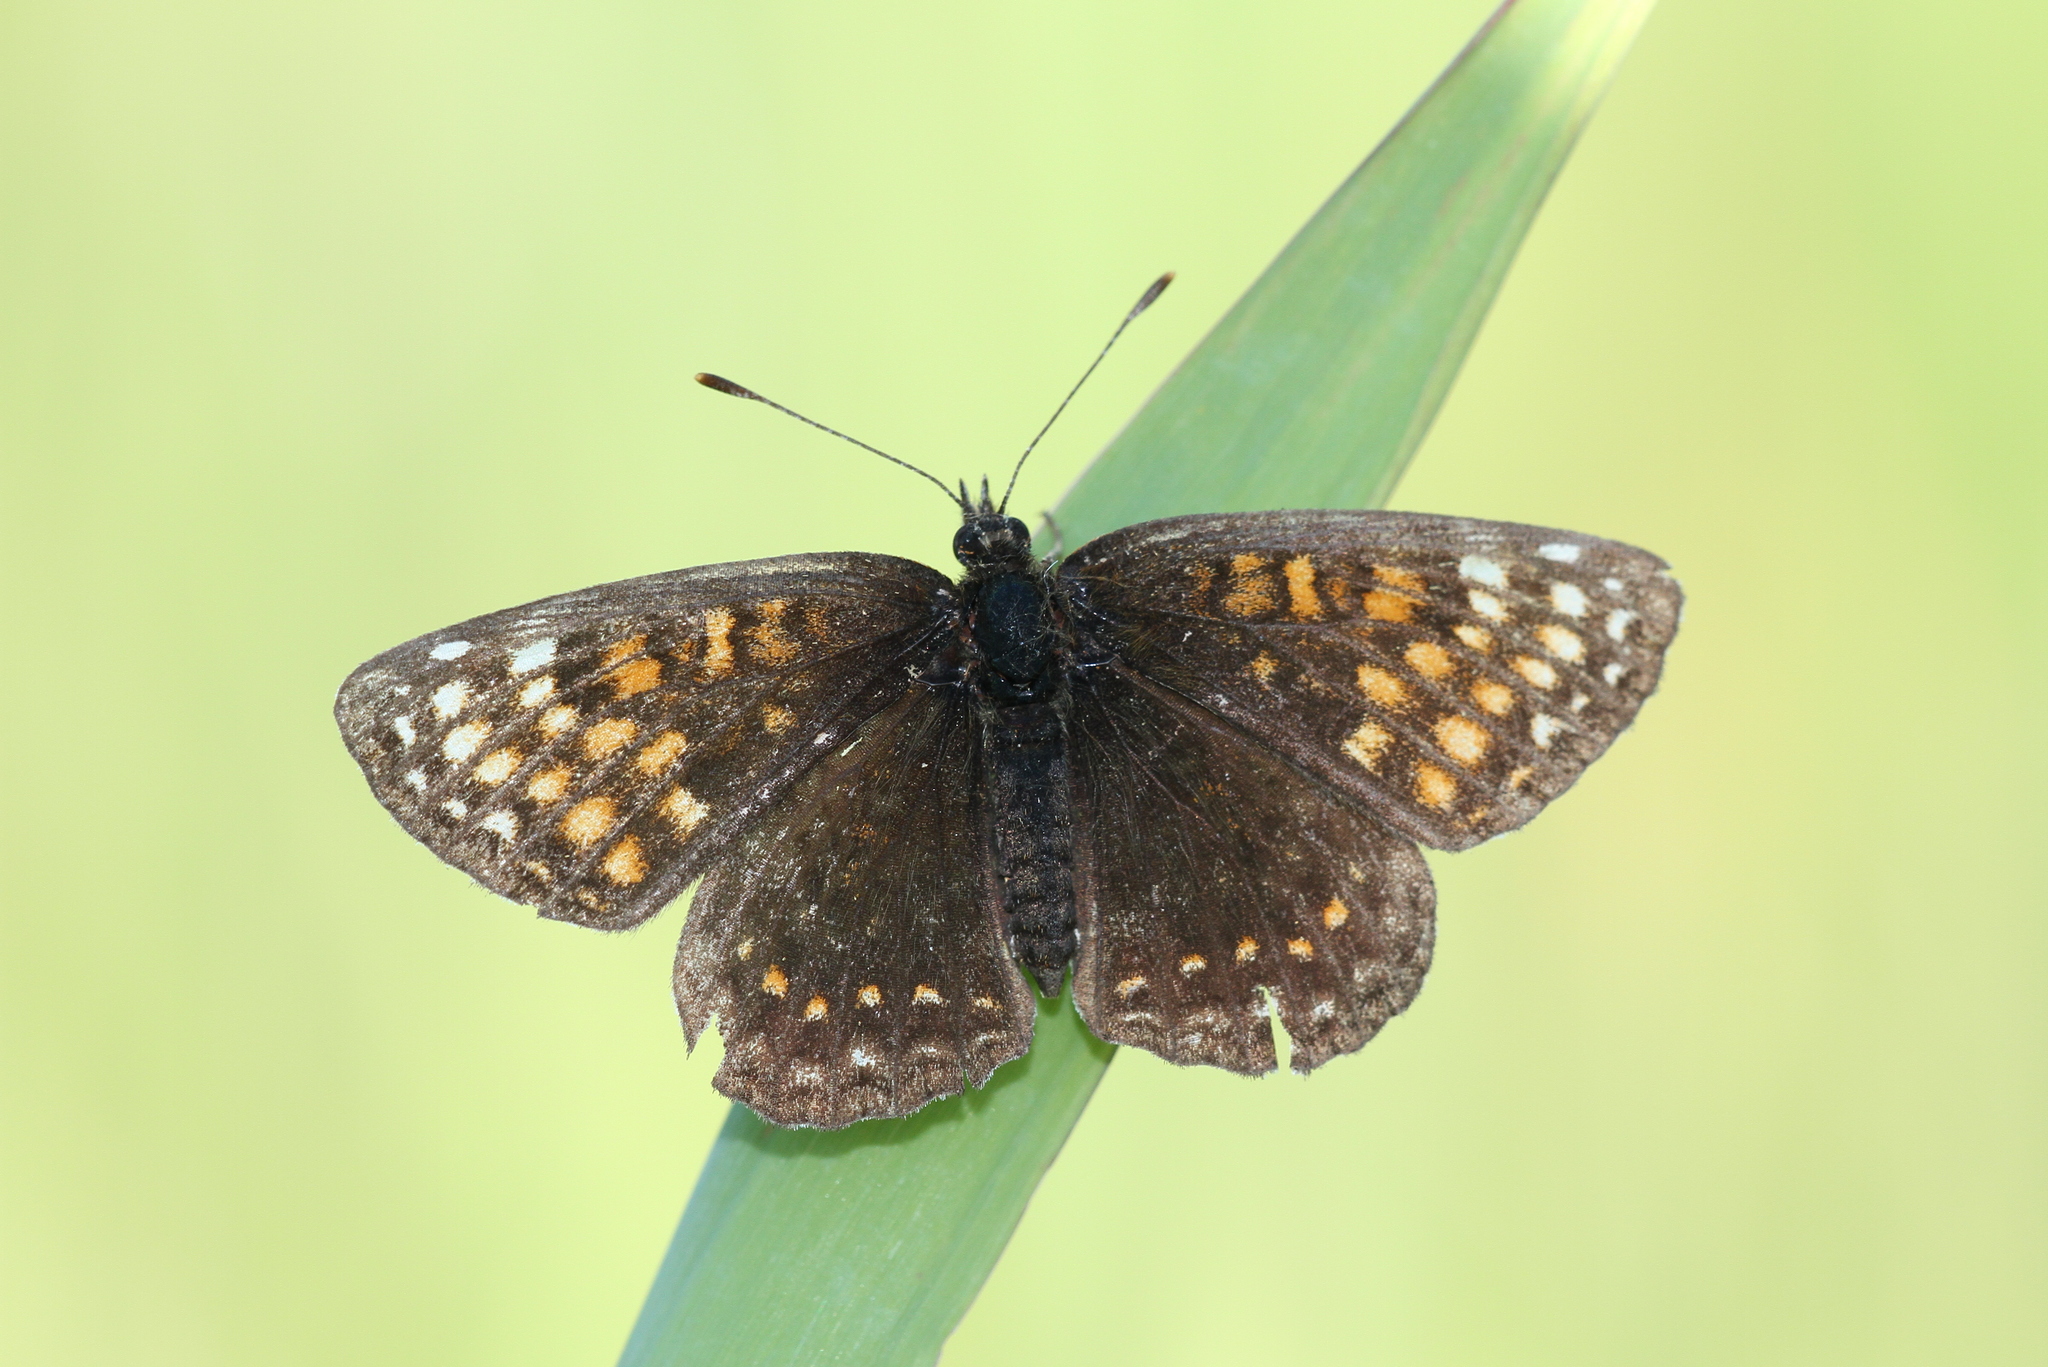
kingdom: Animalia
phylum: Arthropoda
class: Insecta
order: Lepidoptera
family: Nymphalidae
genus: Melitaea
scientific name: Melitaea diamina
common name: False heath fritillary
